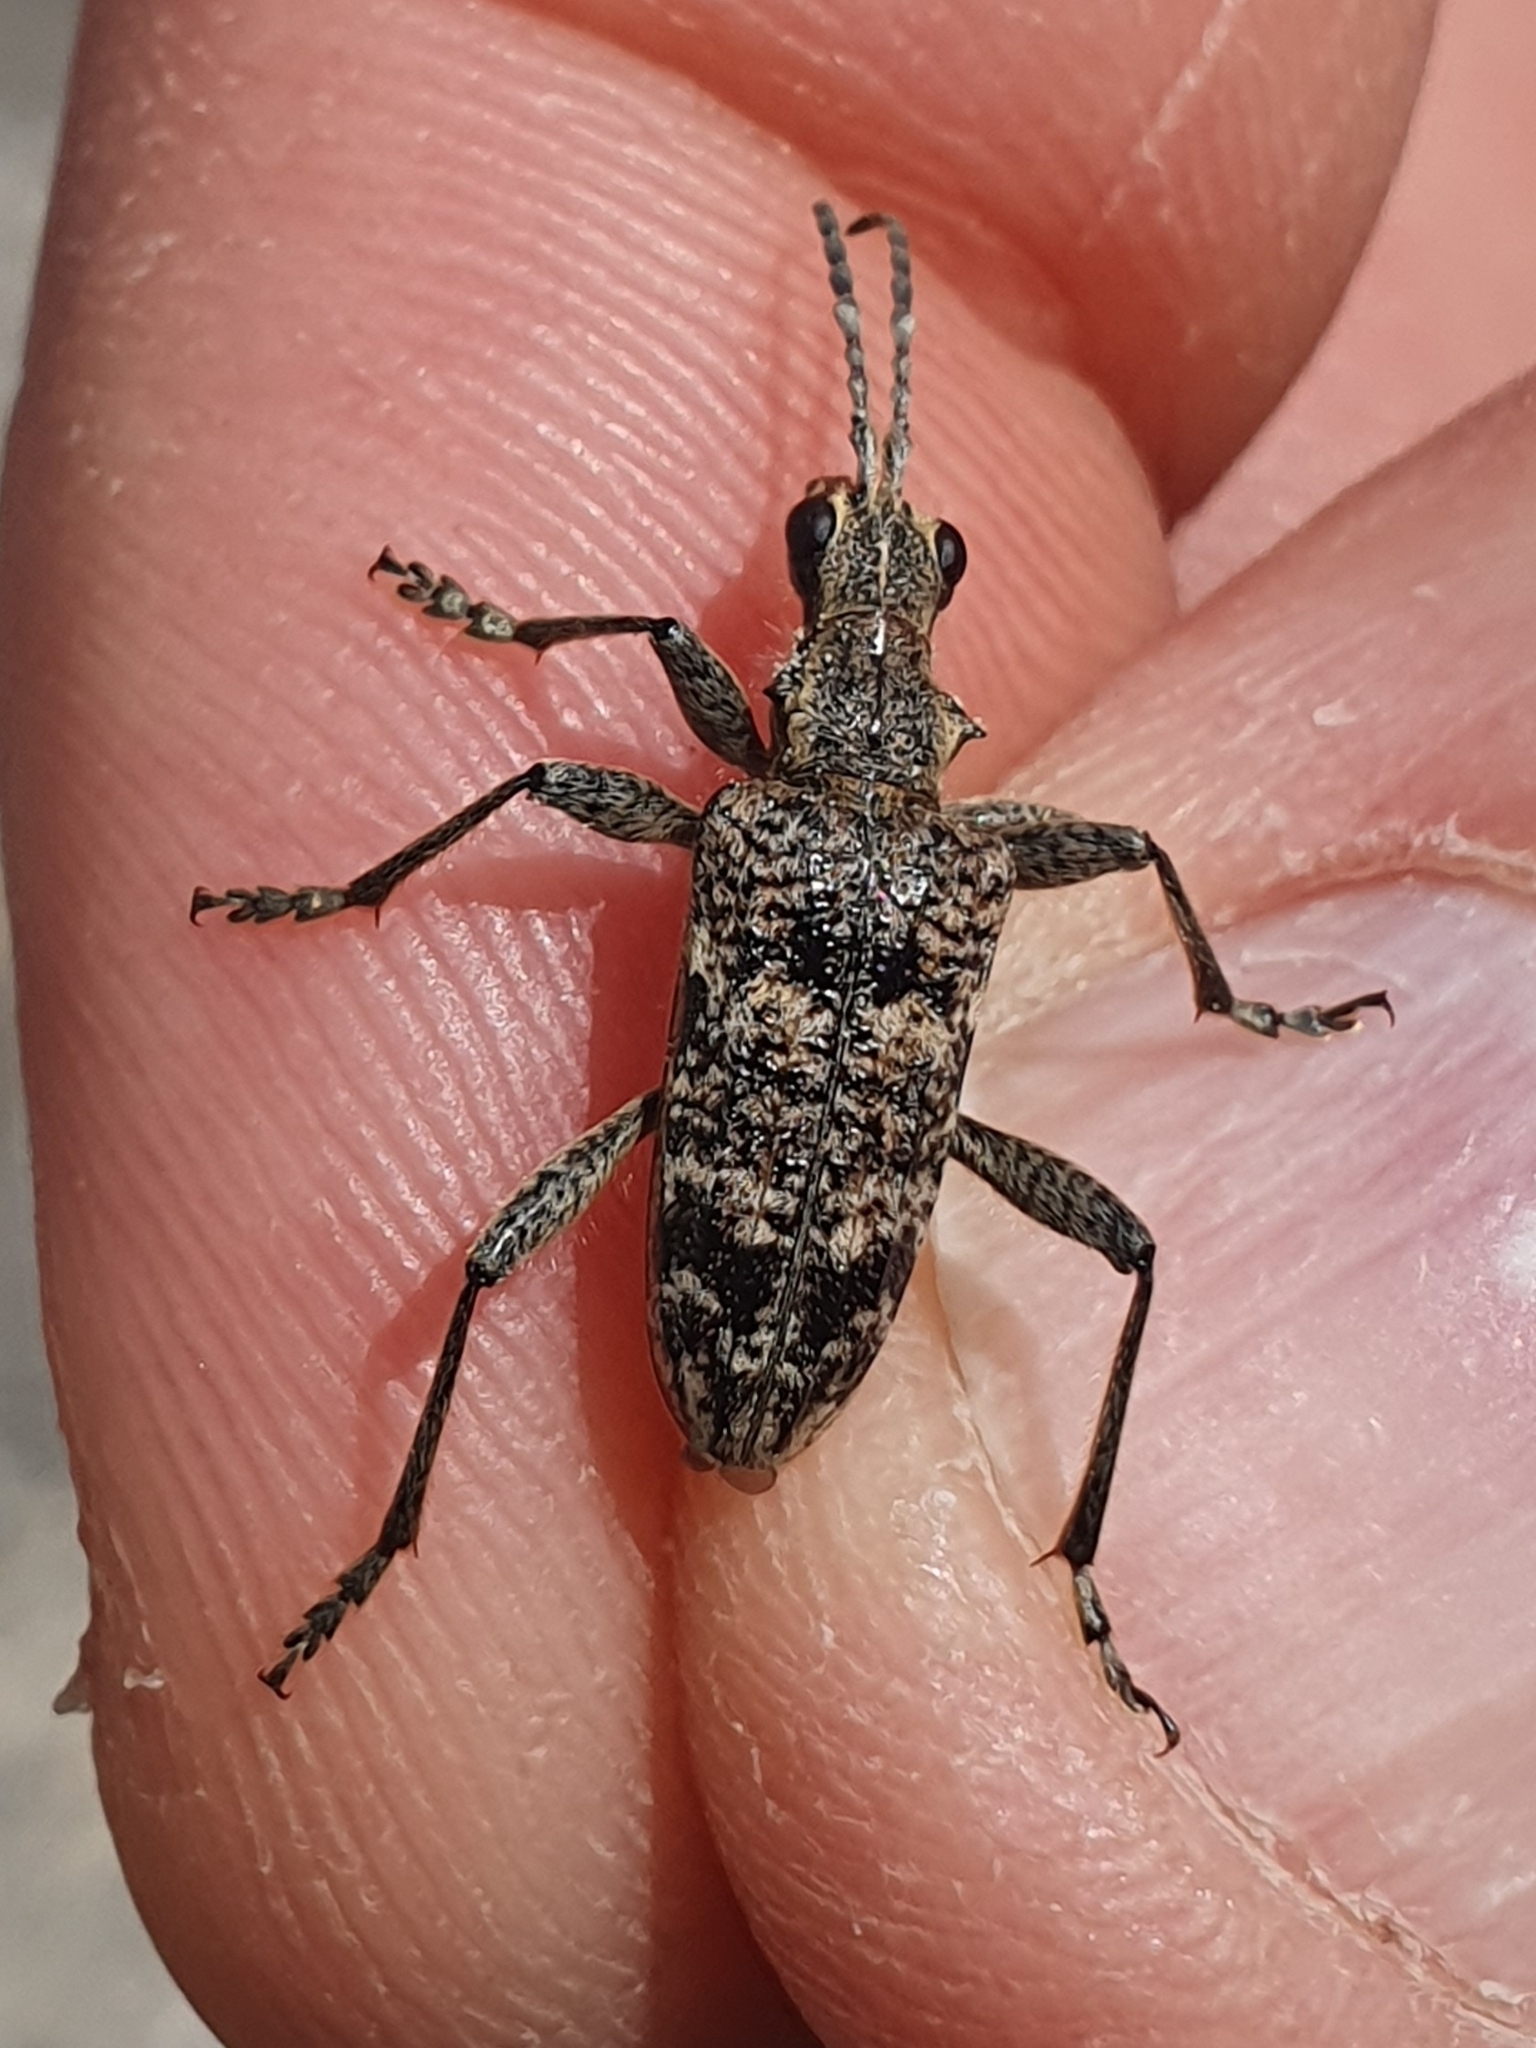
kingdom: Animalia
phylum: Arthropoda
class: Insecta
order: Coleoptera
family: Cerambycidae
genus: Rhagium
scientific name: Rhagium inquisitor
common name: Ribbed pine borer
